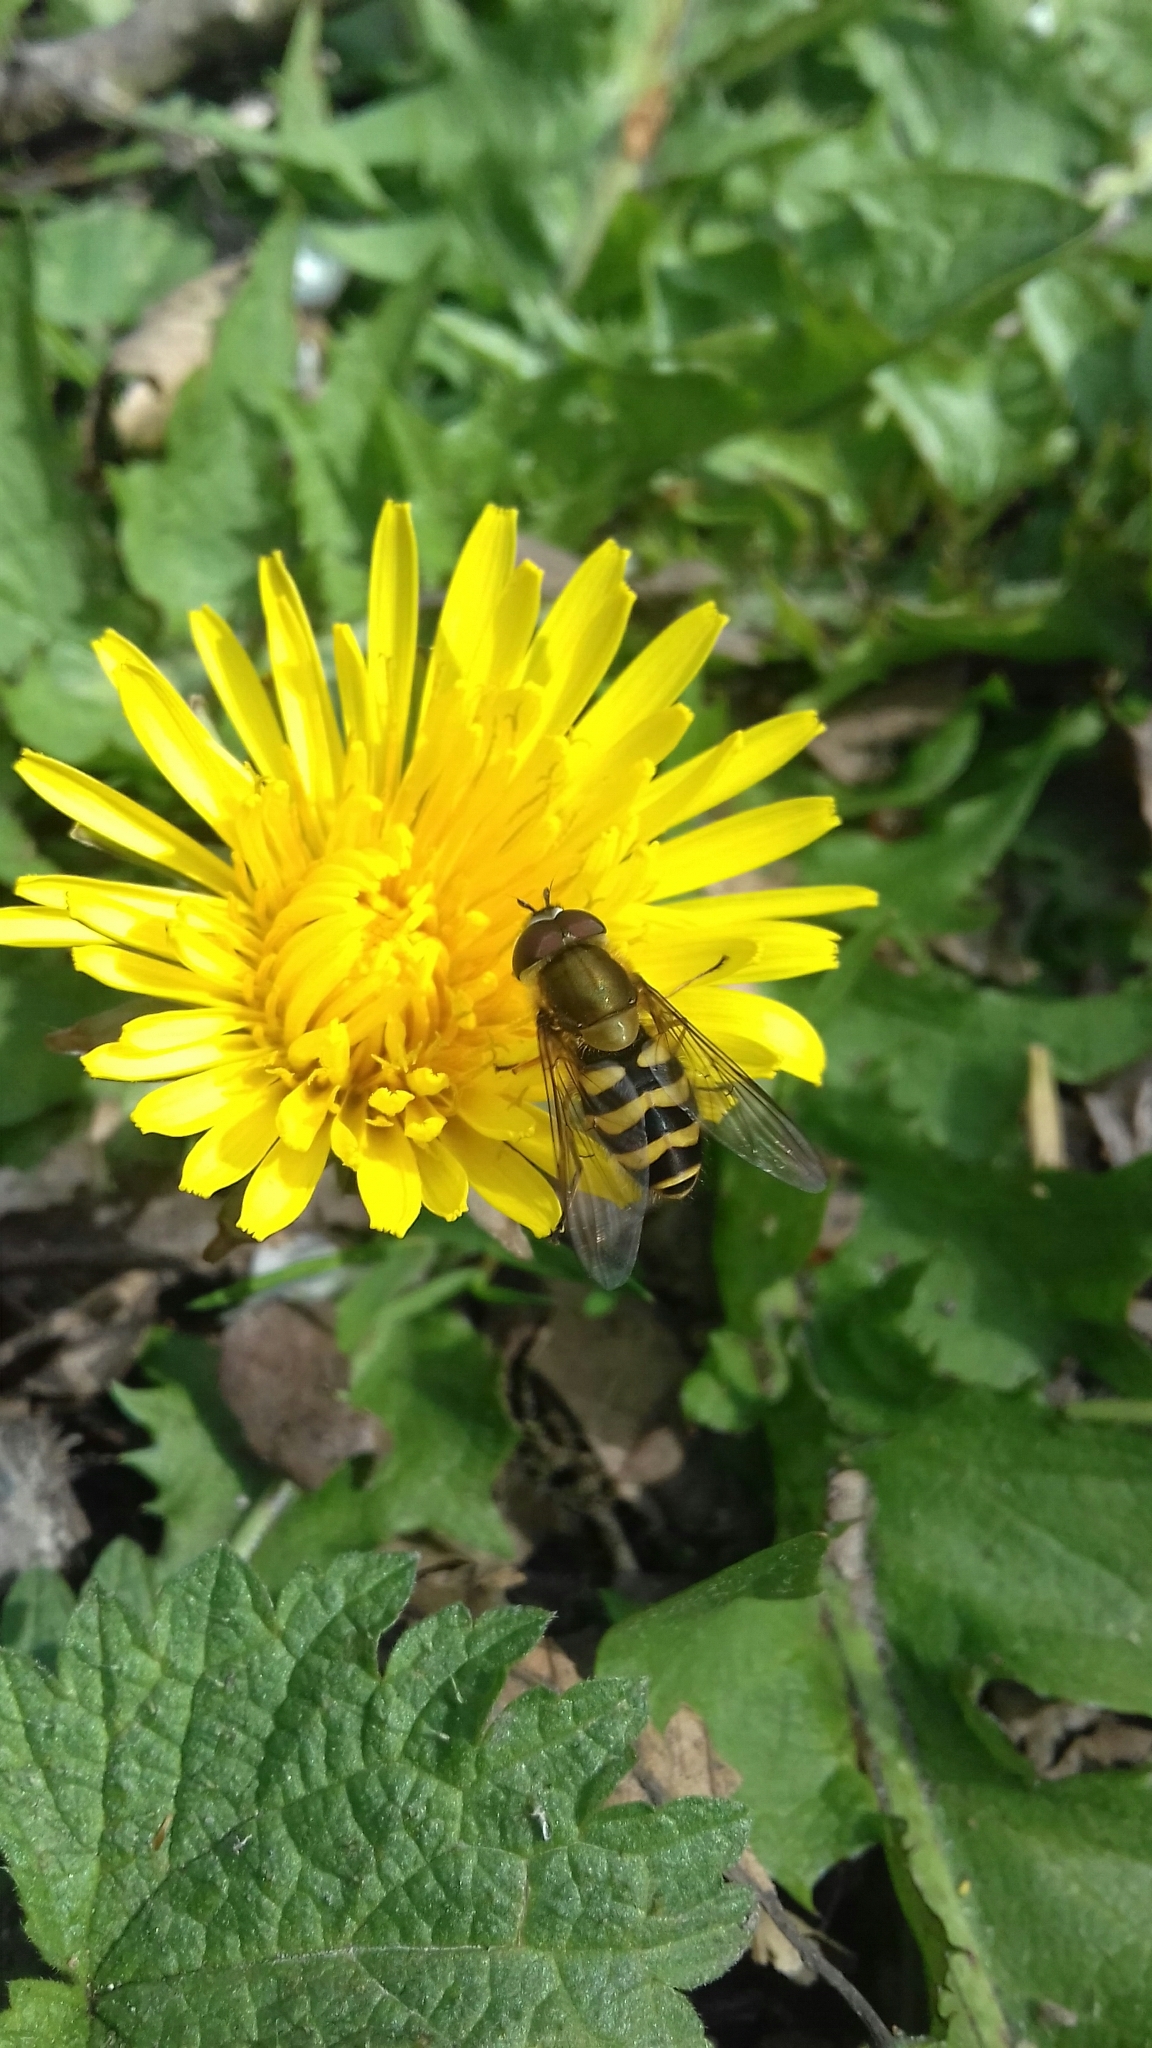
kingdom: Animalia
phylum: Arthropoda
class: Insecta
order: Diptera
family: Syrphidae
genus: Syrphus
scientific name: Syrphus
